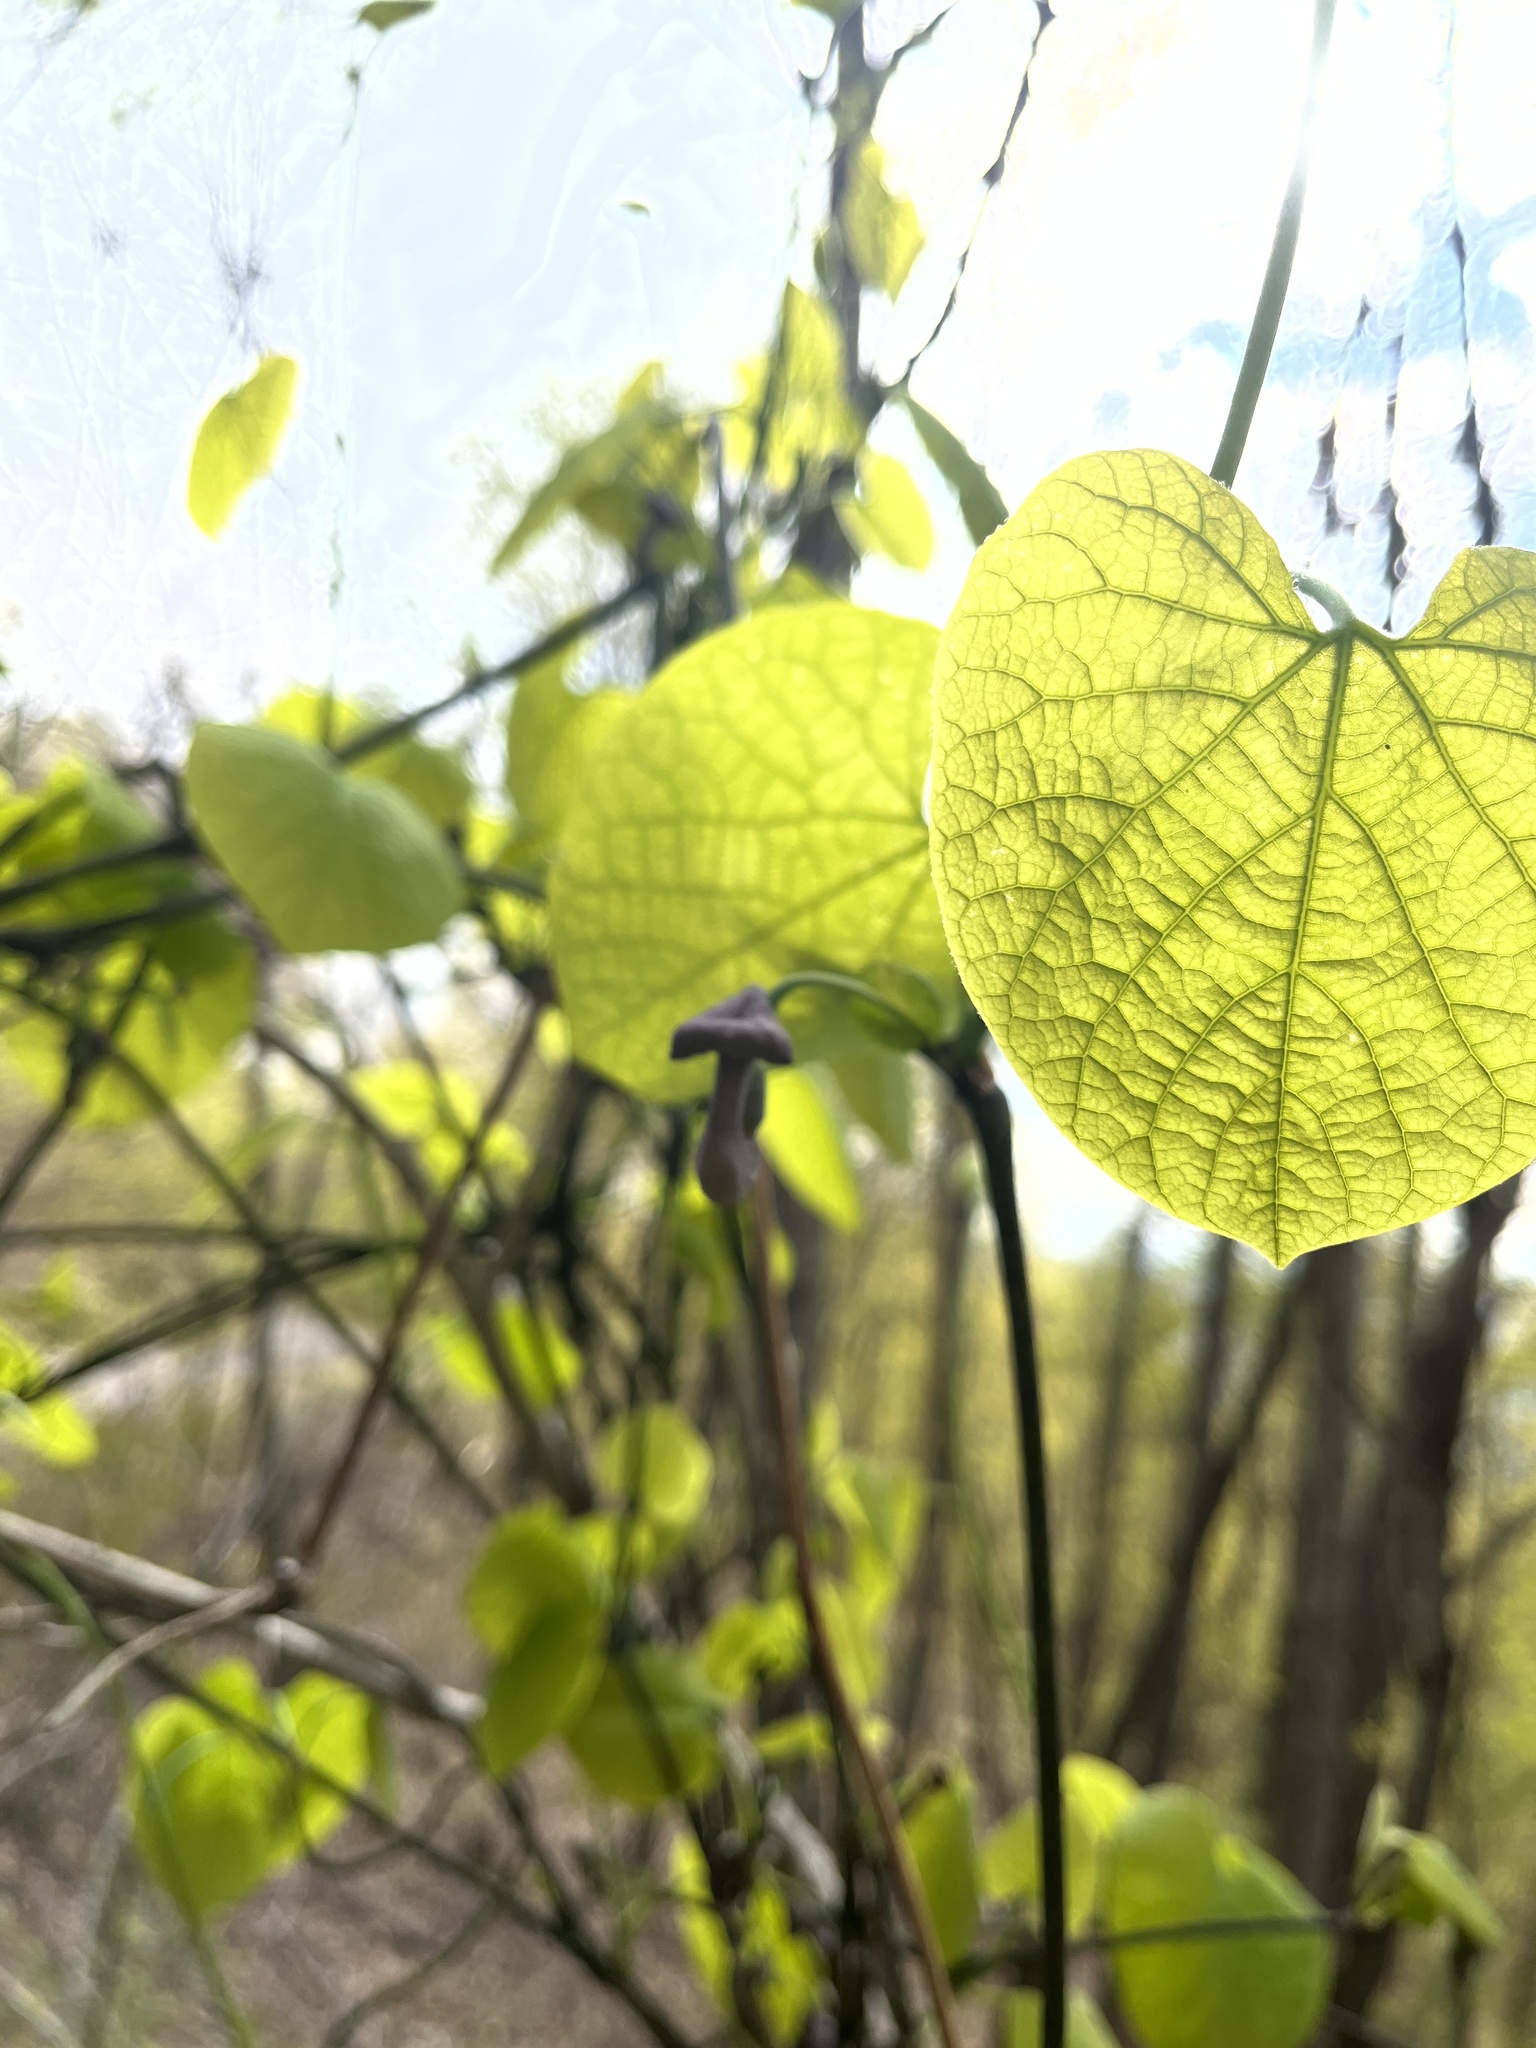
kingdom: Plantae
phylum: Tracheophyta
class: Magnoliopsida
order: Piperales
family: Aristolochiaceae
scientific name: Aristolochiaceae
